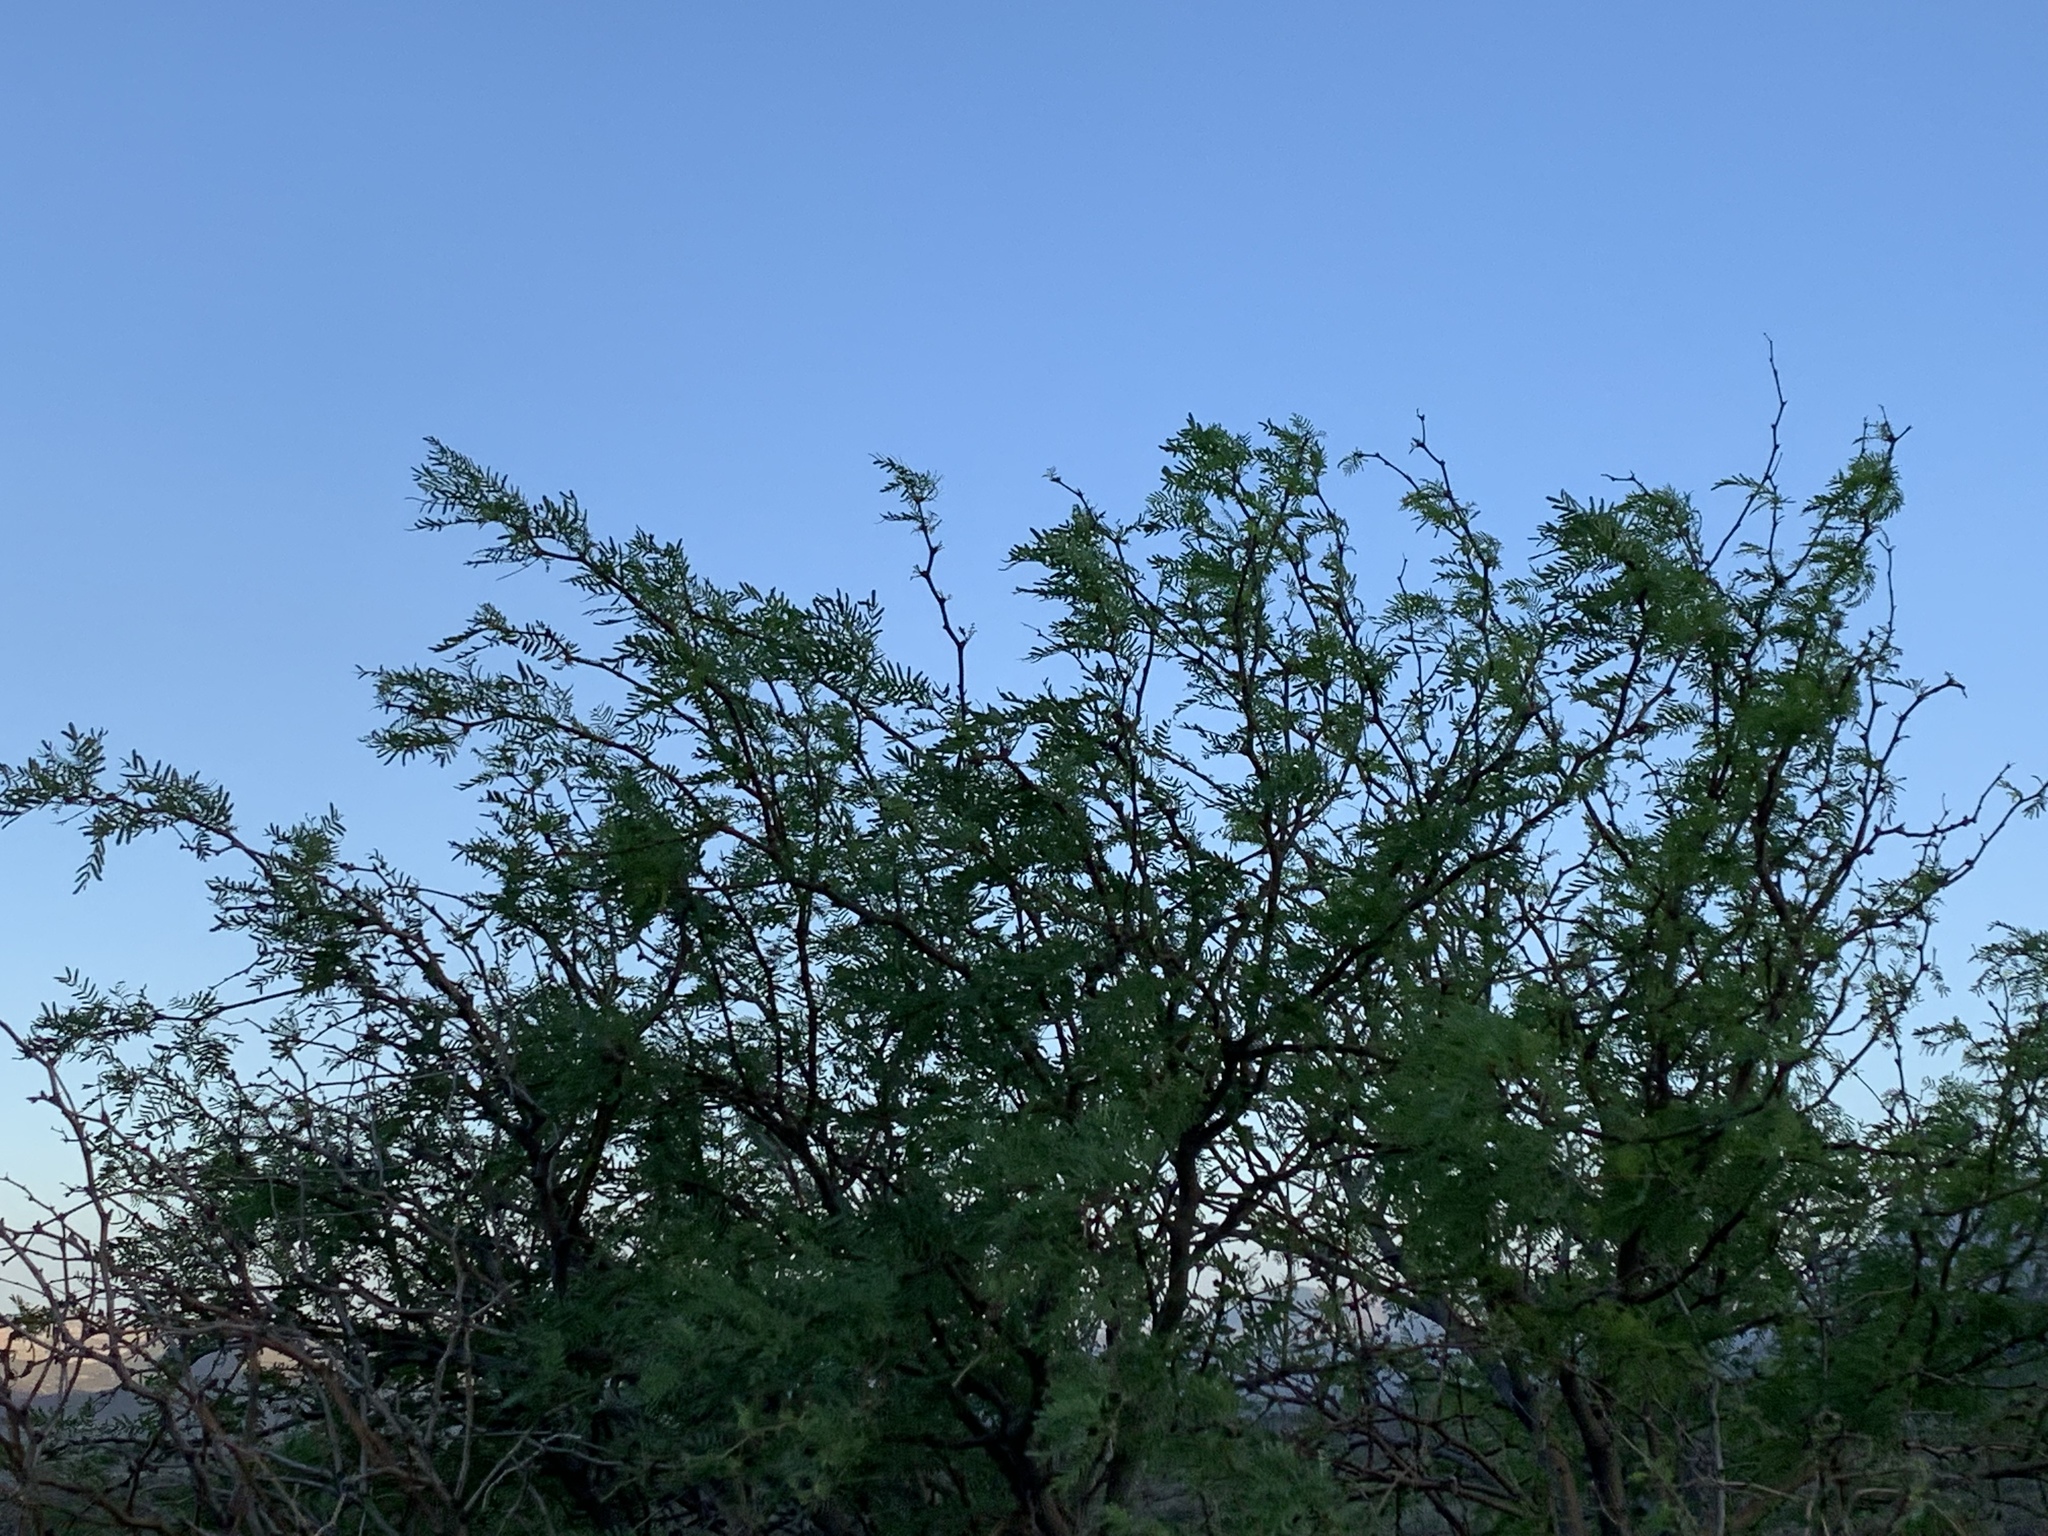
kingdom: Plantae
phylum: Tracheophyta
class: Magnoliopsida
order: Fabales
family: Fabaceae
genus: Prosopis
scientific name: Prosopis pubescens
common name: Screw-bean
